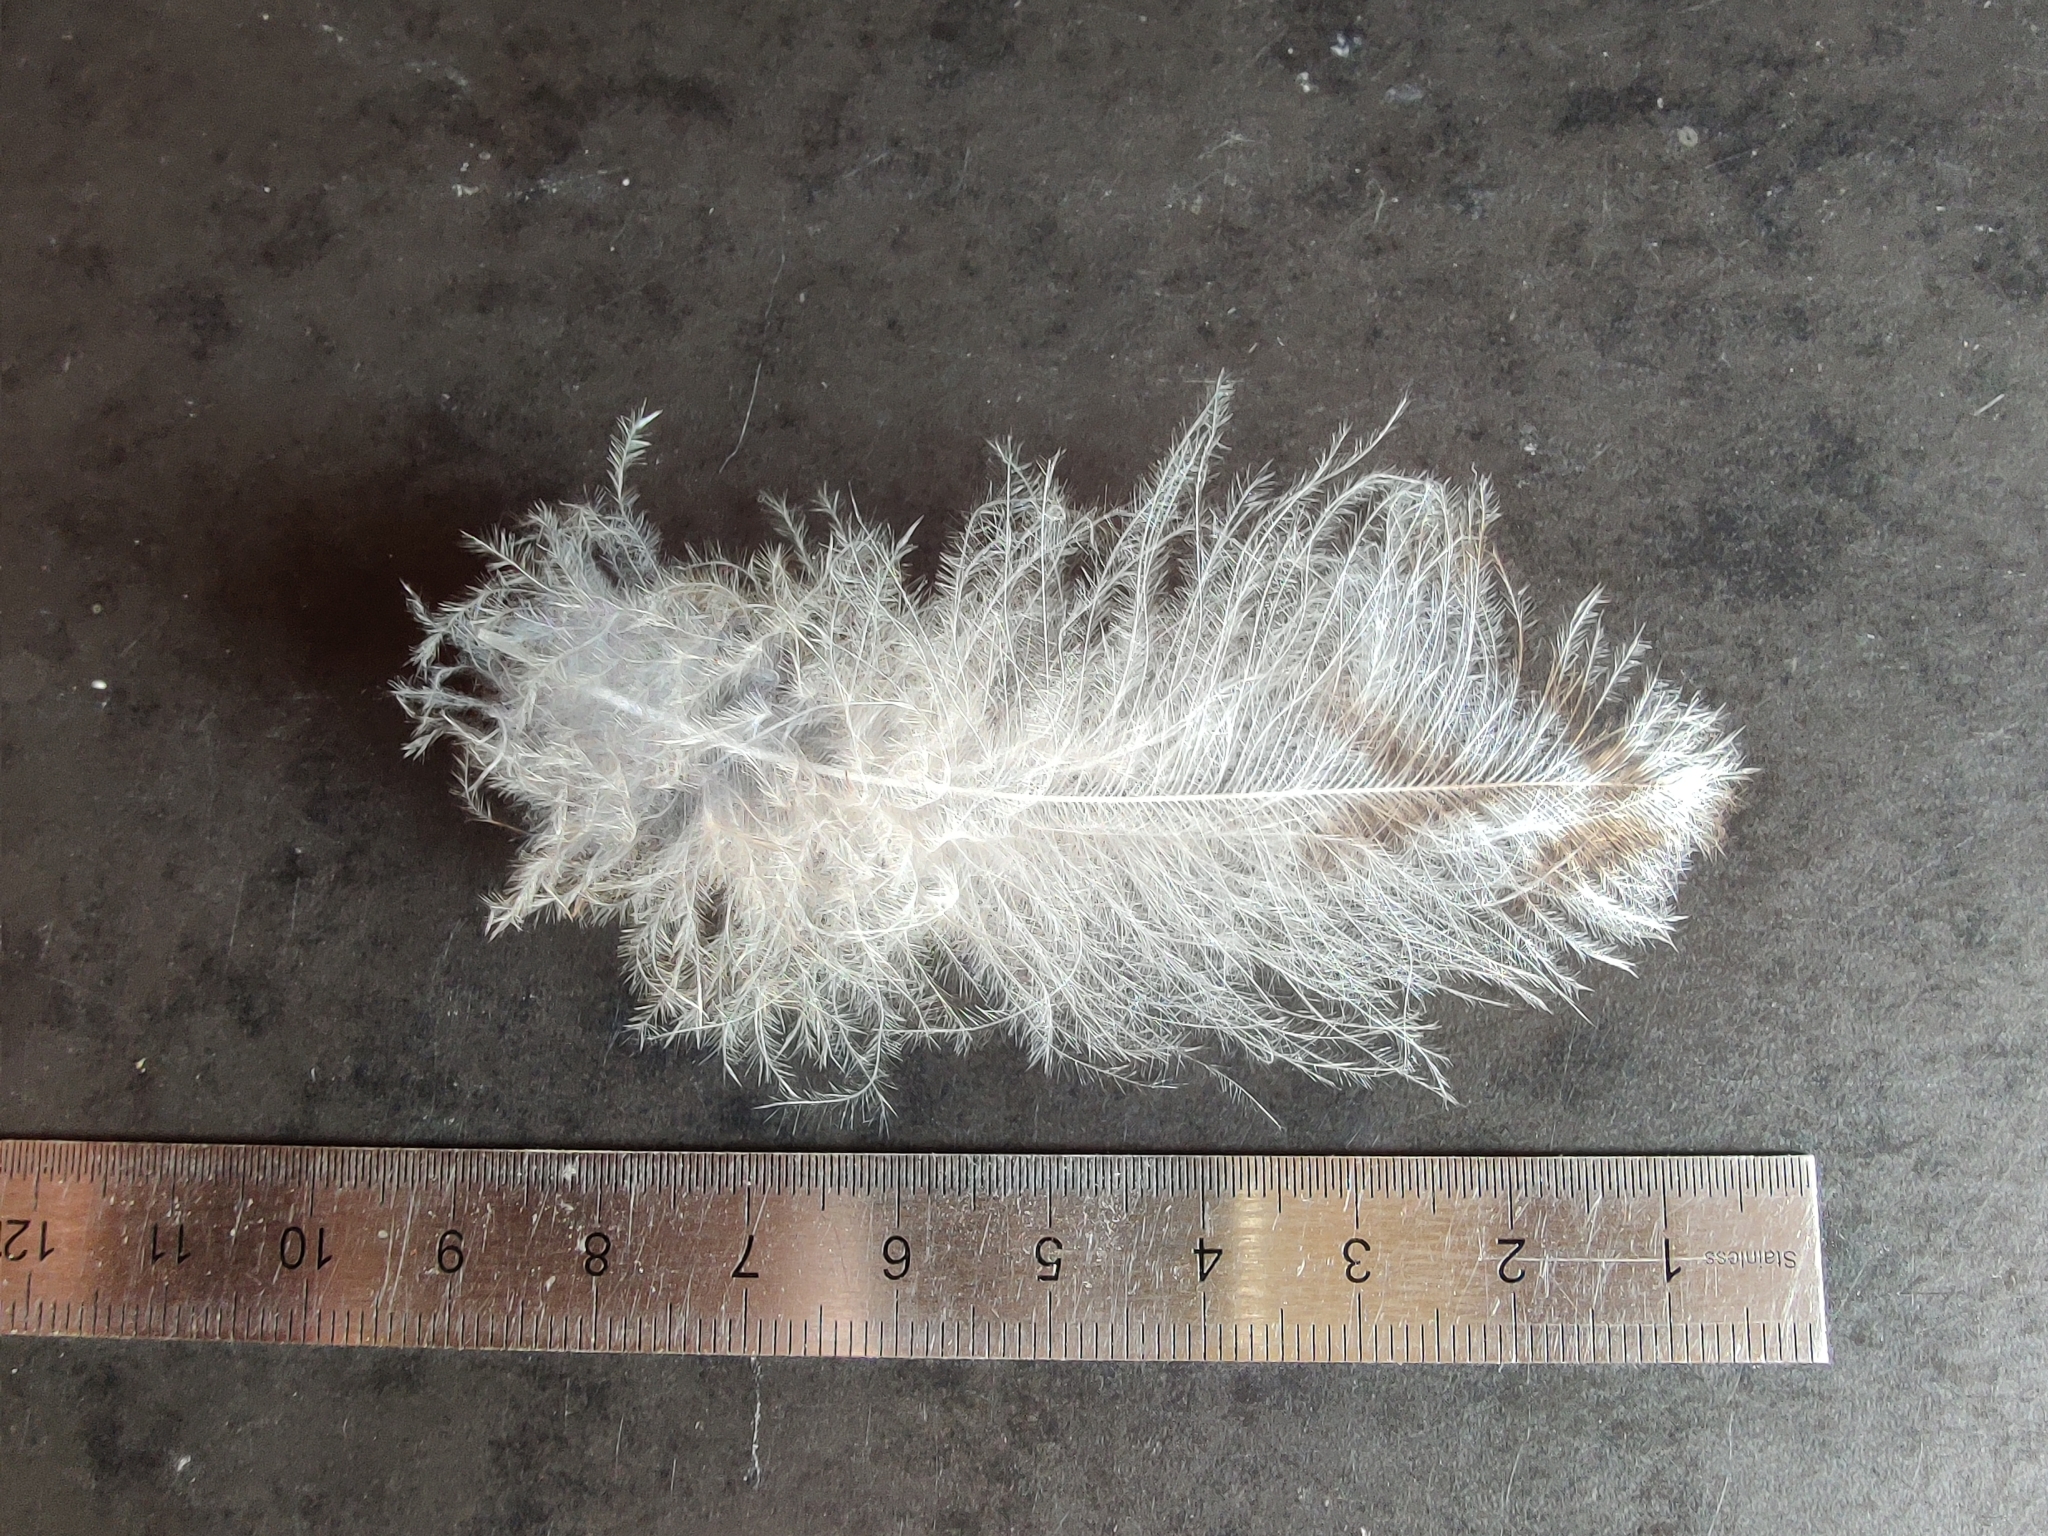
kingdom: Animalia
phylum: Chordata
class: Aves
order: Strigiformes
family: Strigidae
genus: Strix
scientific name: Strix aluco
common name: Tawny owl
